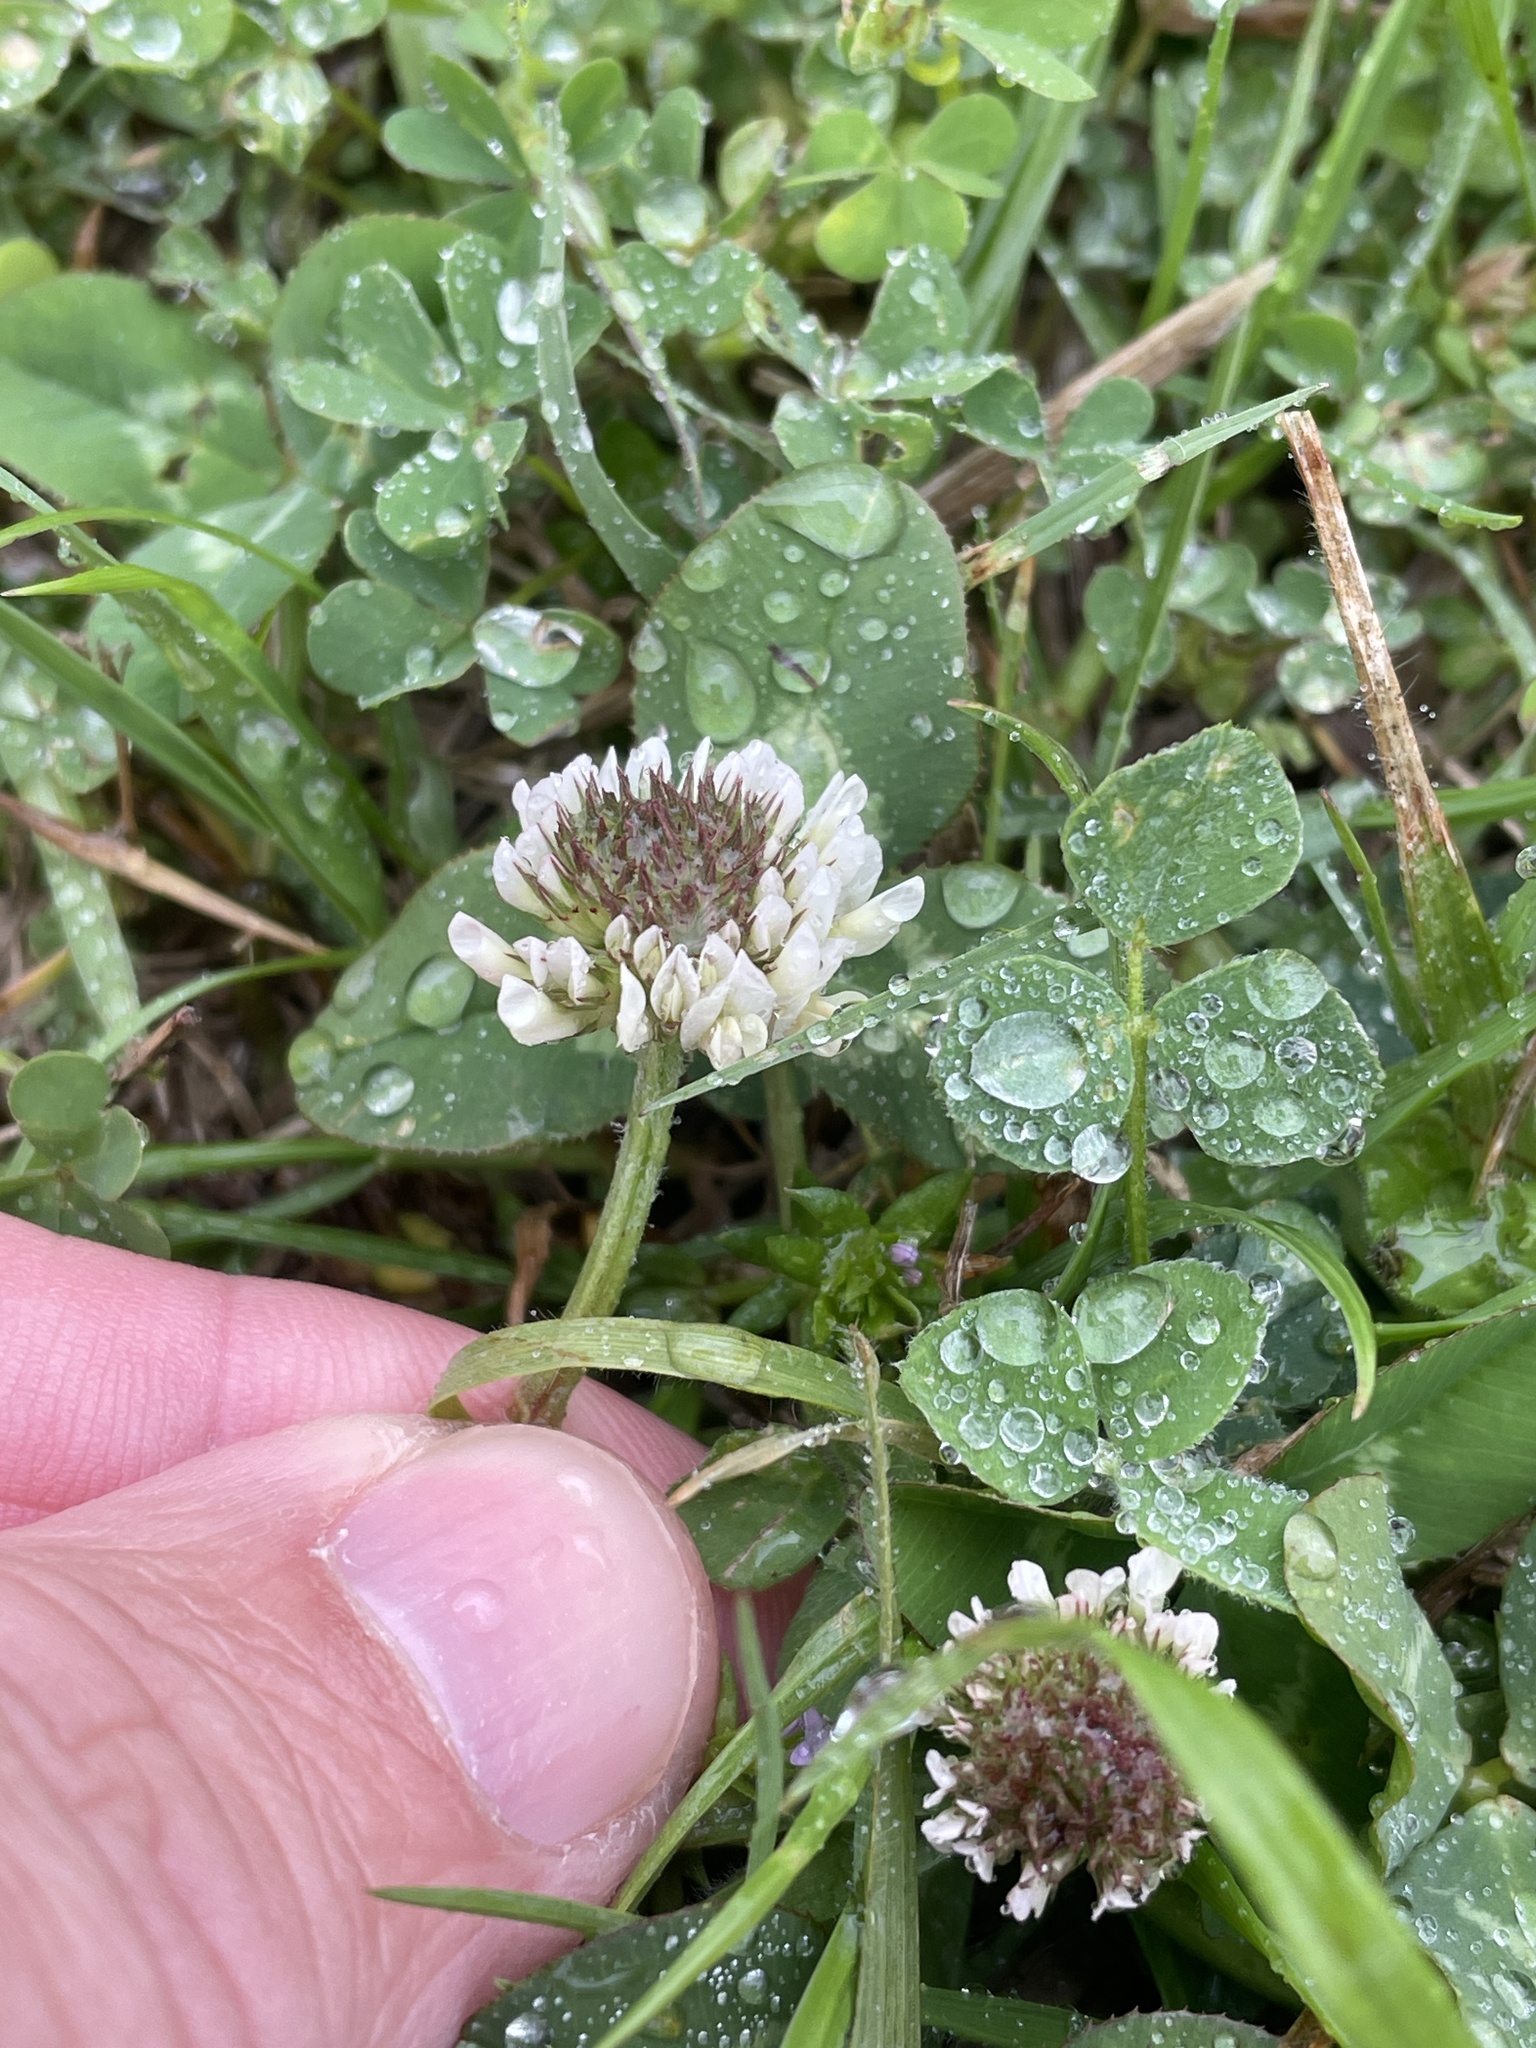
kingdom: Plantae
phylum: Tracheophyta
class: Magnoliopsida
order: Fabales
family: Fabaceae
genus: Trifolium
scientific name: Trifolium repens
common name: White clover
